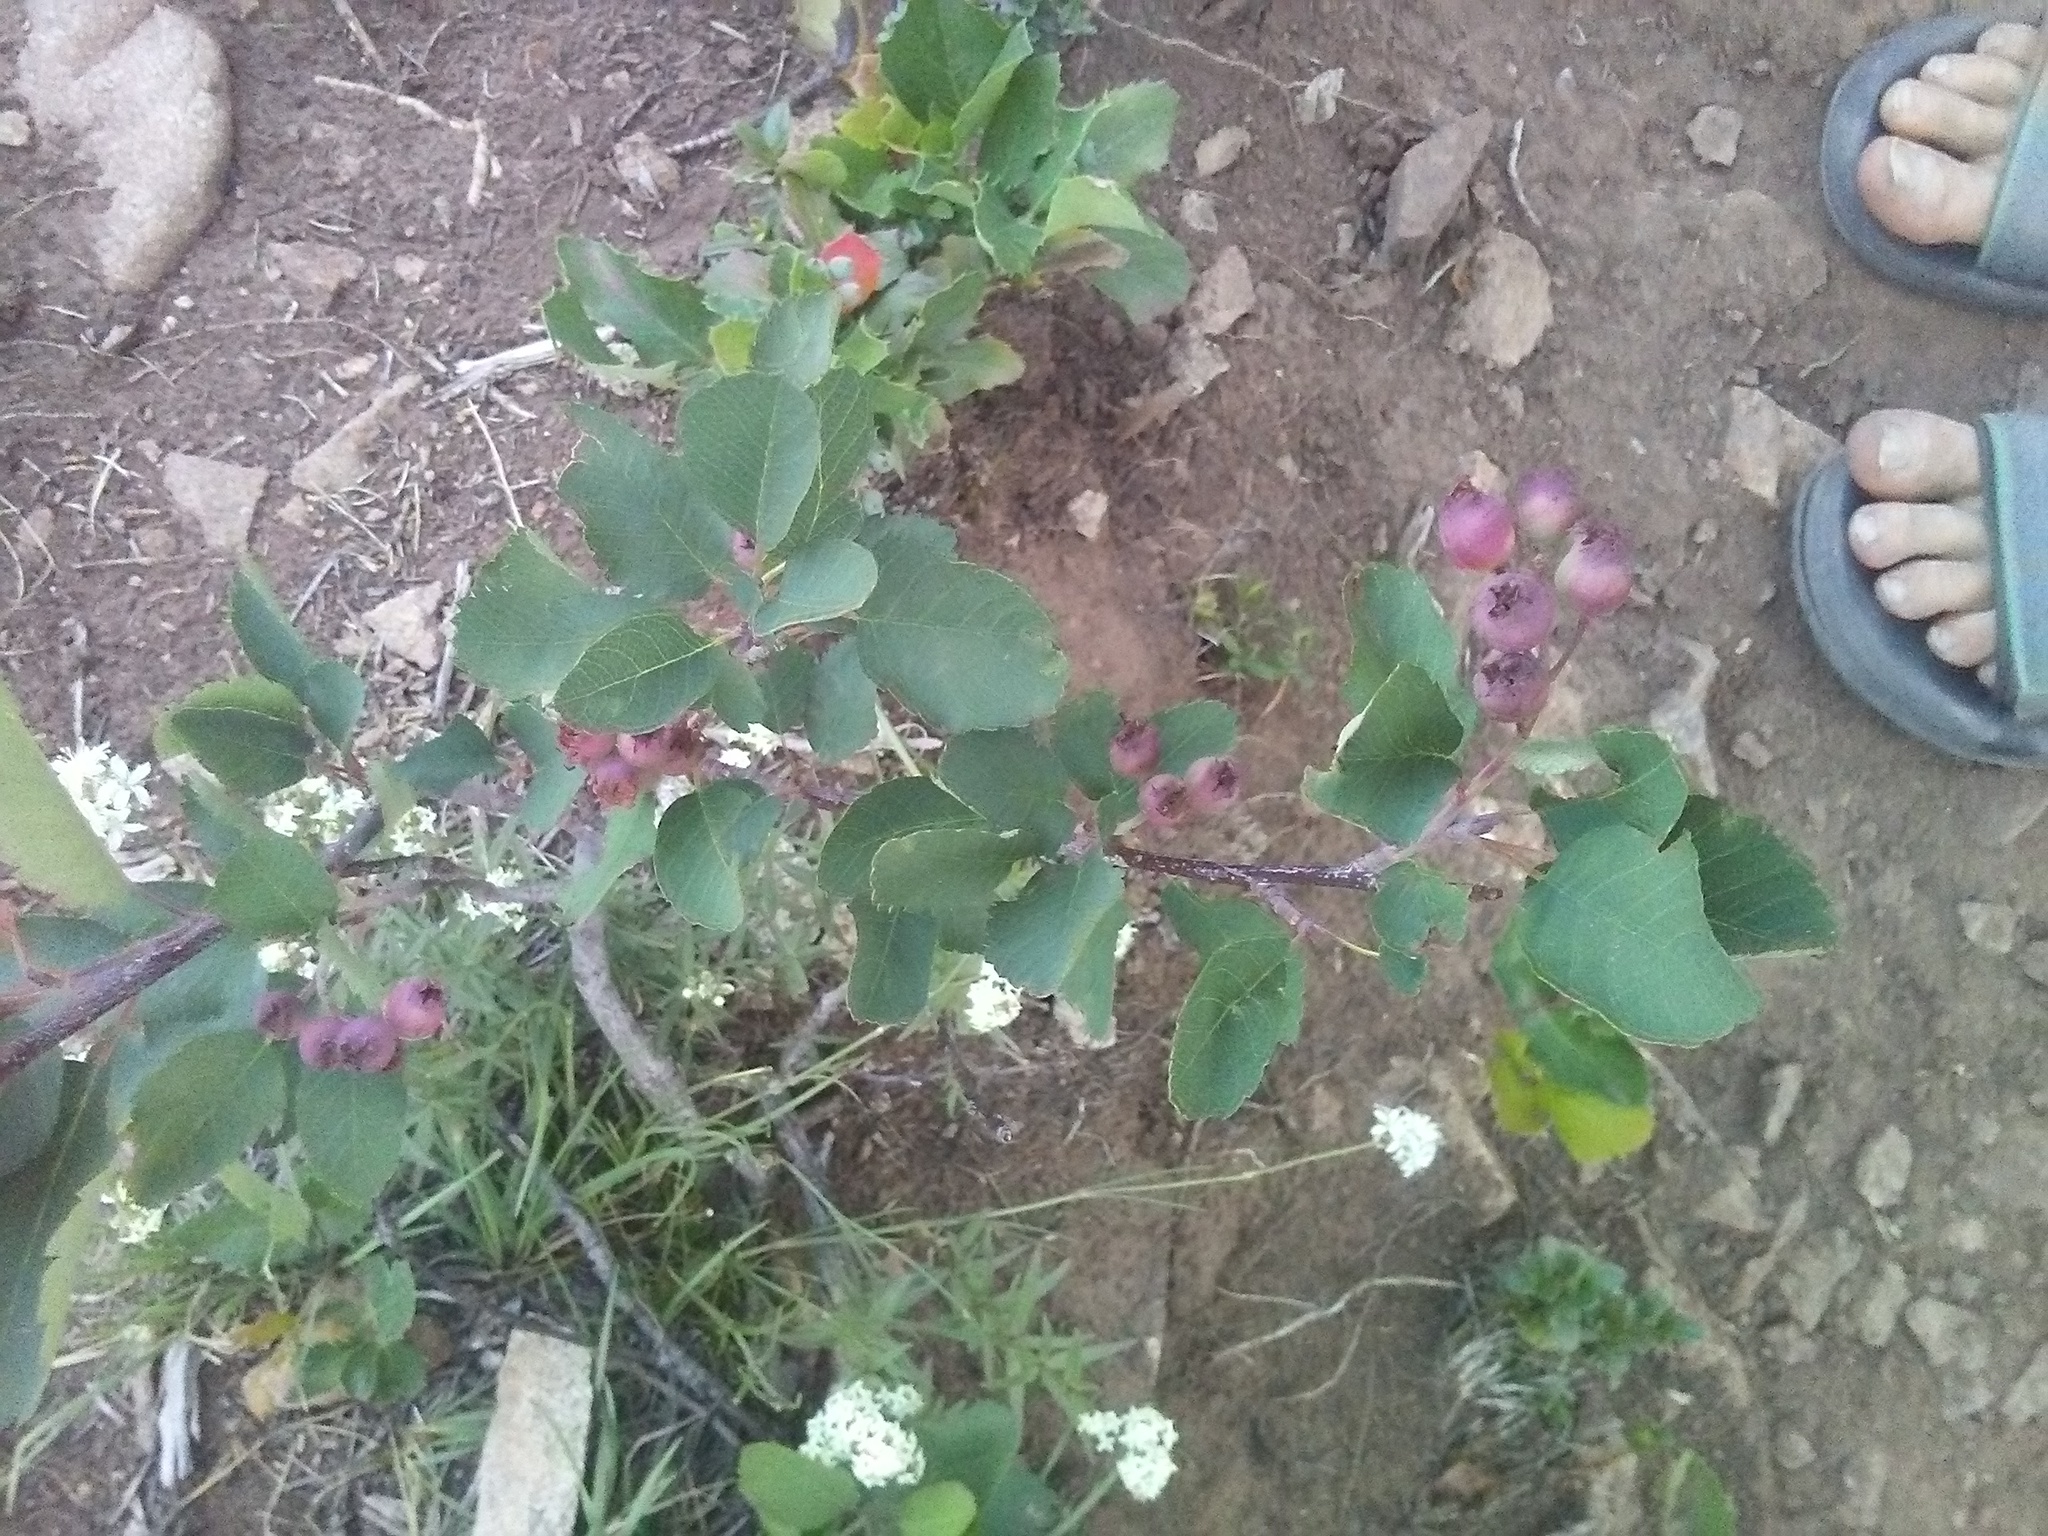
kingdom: Plantae
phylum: Tracheophyta
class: Magnoliopsida
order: Rosales
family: Rosaceae
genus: Amelanchier
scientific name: Amelanchier alnifolia
